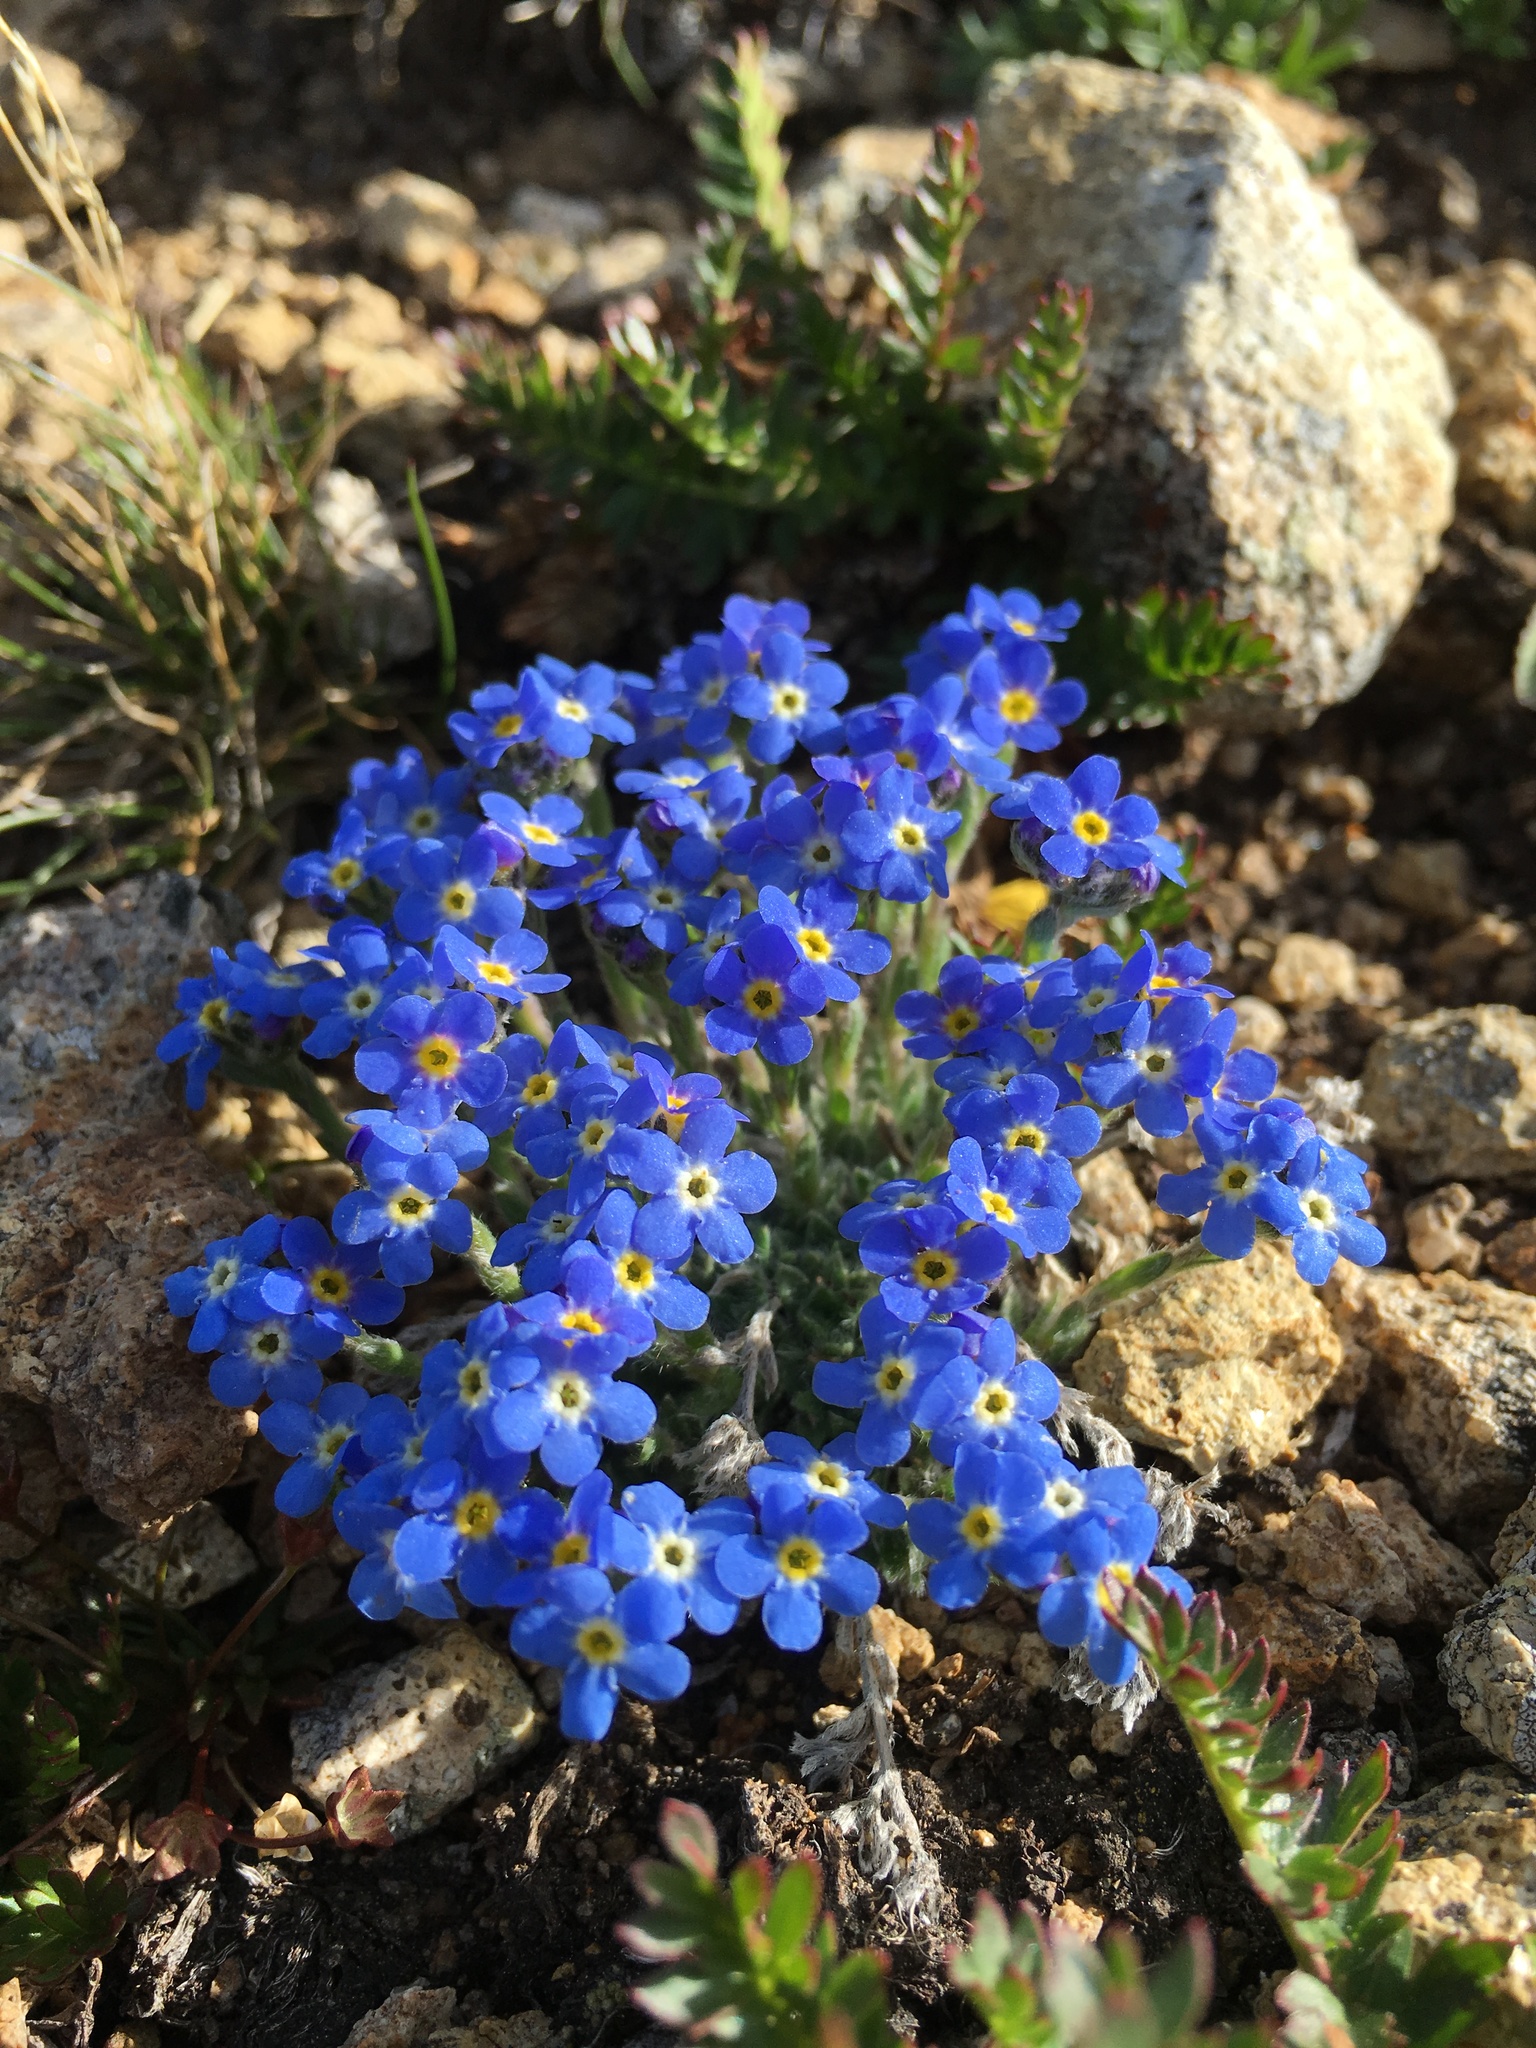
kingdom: Plantae
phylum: Tracheophyta
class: Magnoliopsida
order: Boraginales
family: Boraginaceae
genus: Eritrichium
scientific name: Eritrichium argenteum
